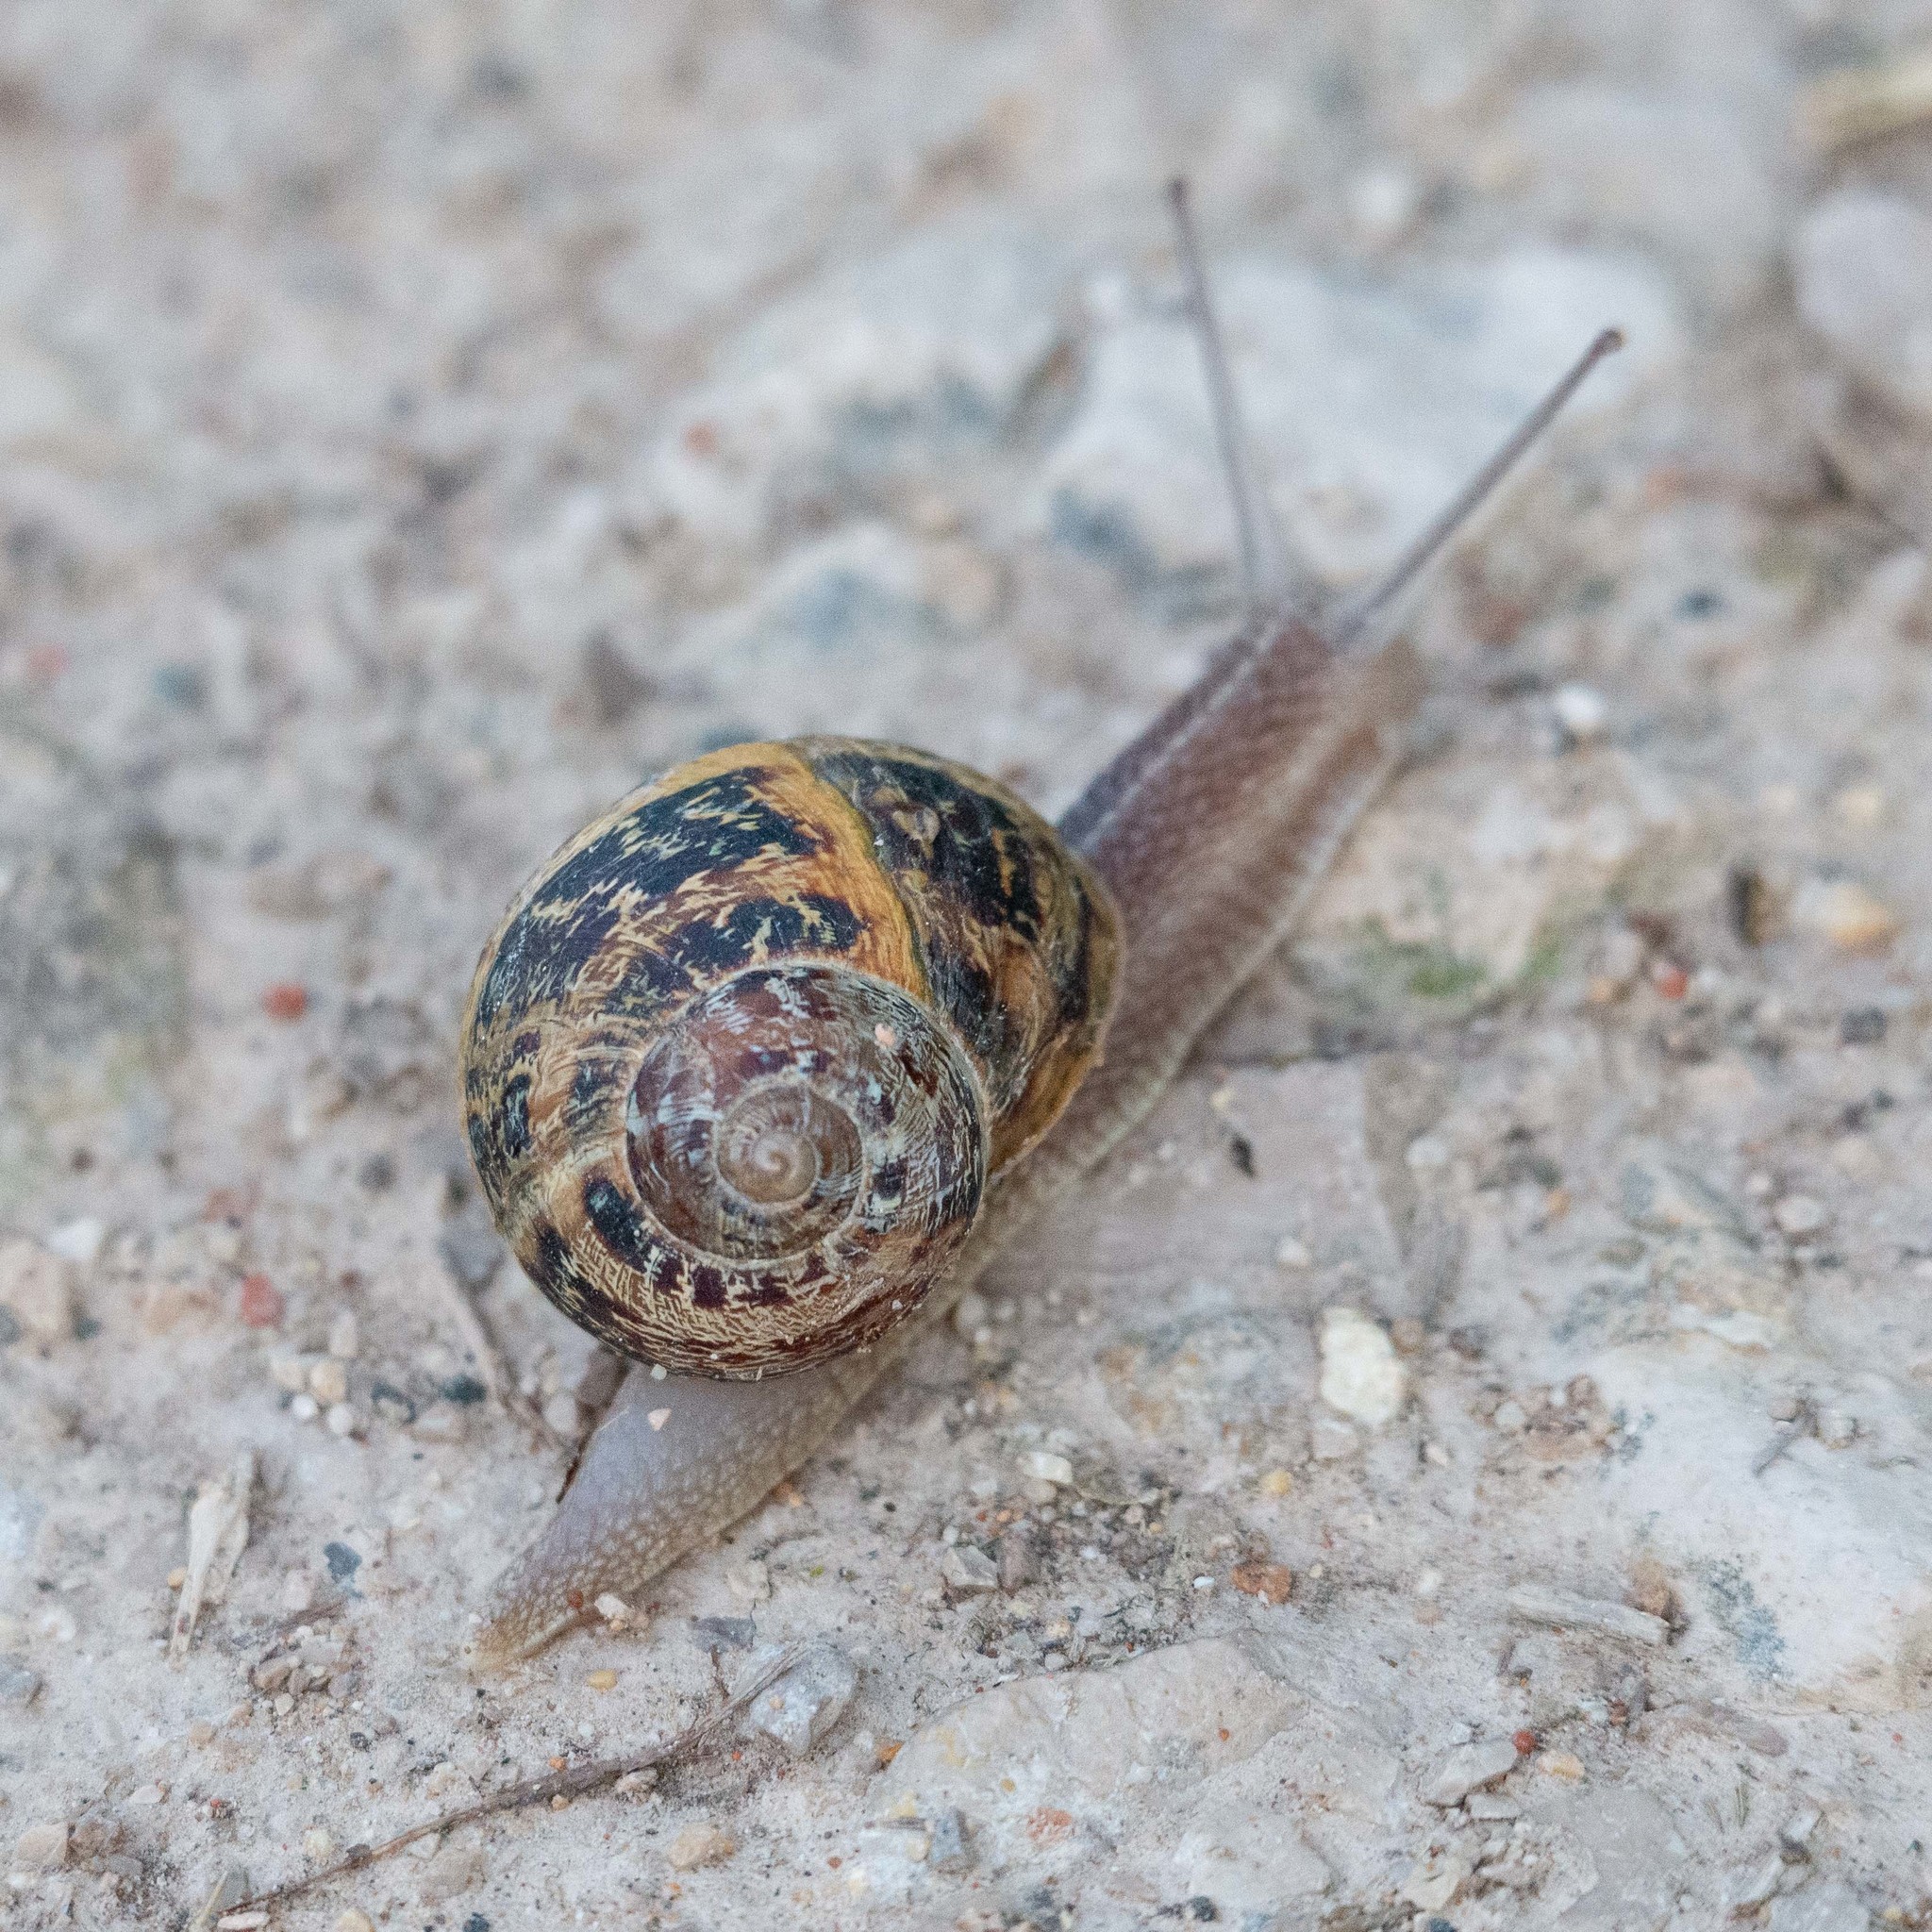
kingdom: Animalia
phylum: Mollusca
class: Gastropoda
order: Stylommatophora
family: Helicidae
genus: Cornu
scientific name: Cornu aspersum
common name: Brown garden snail
